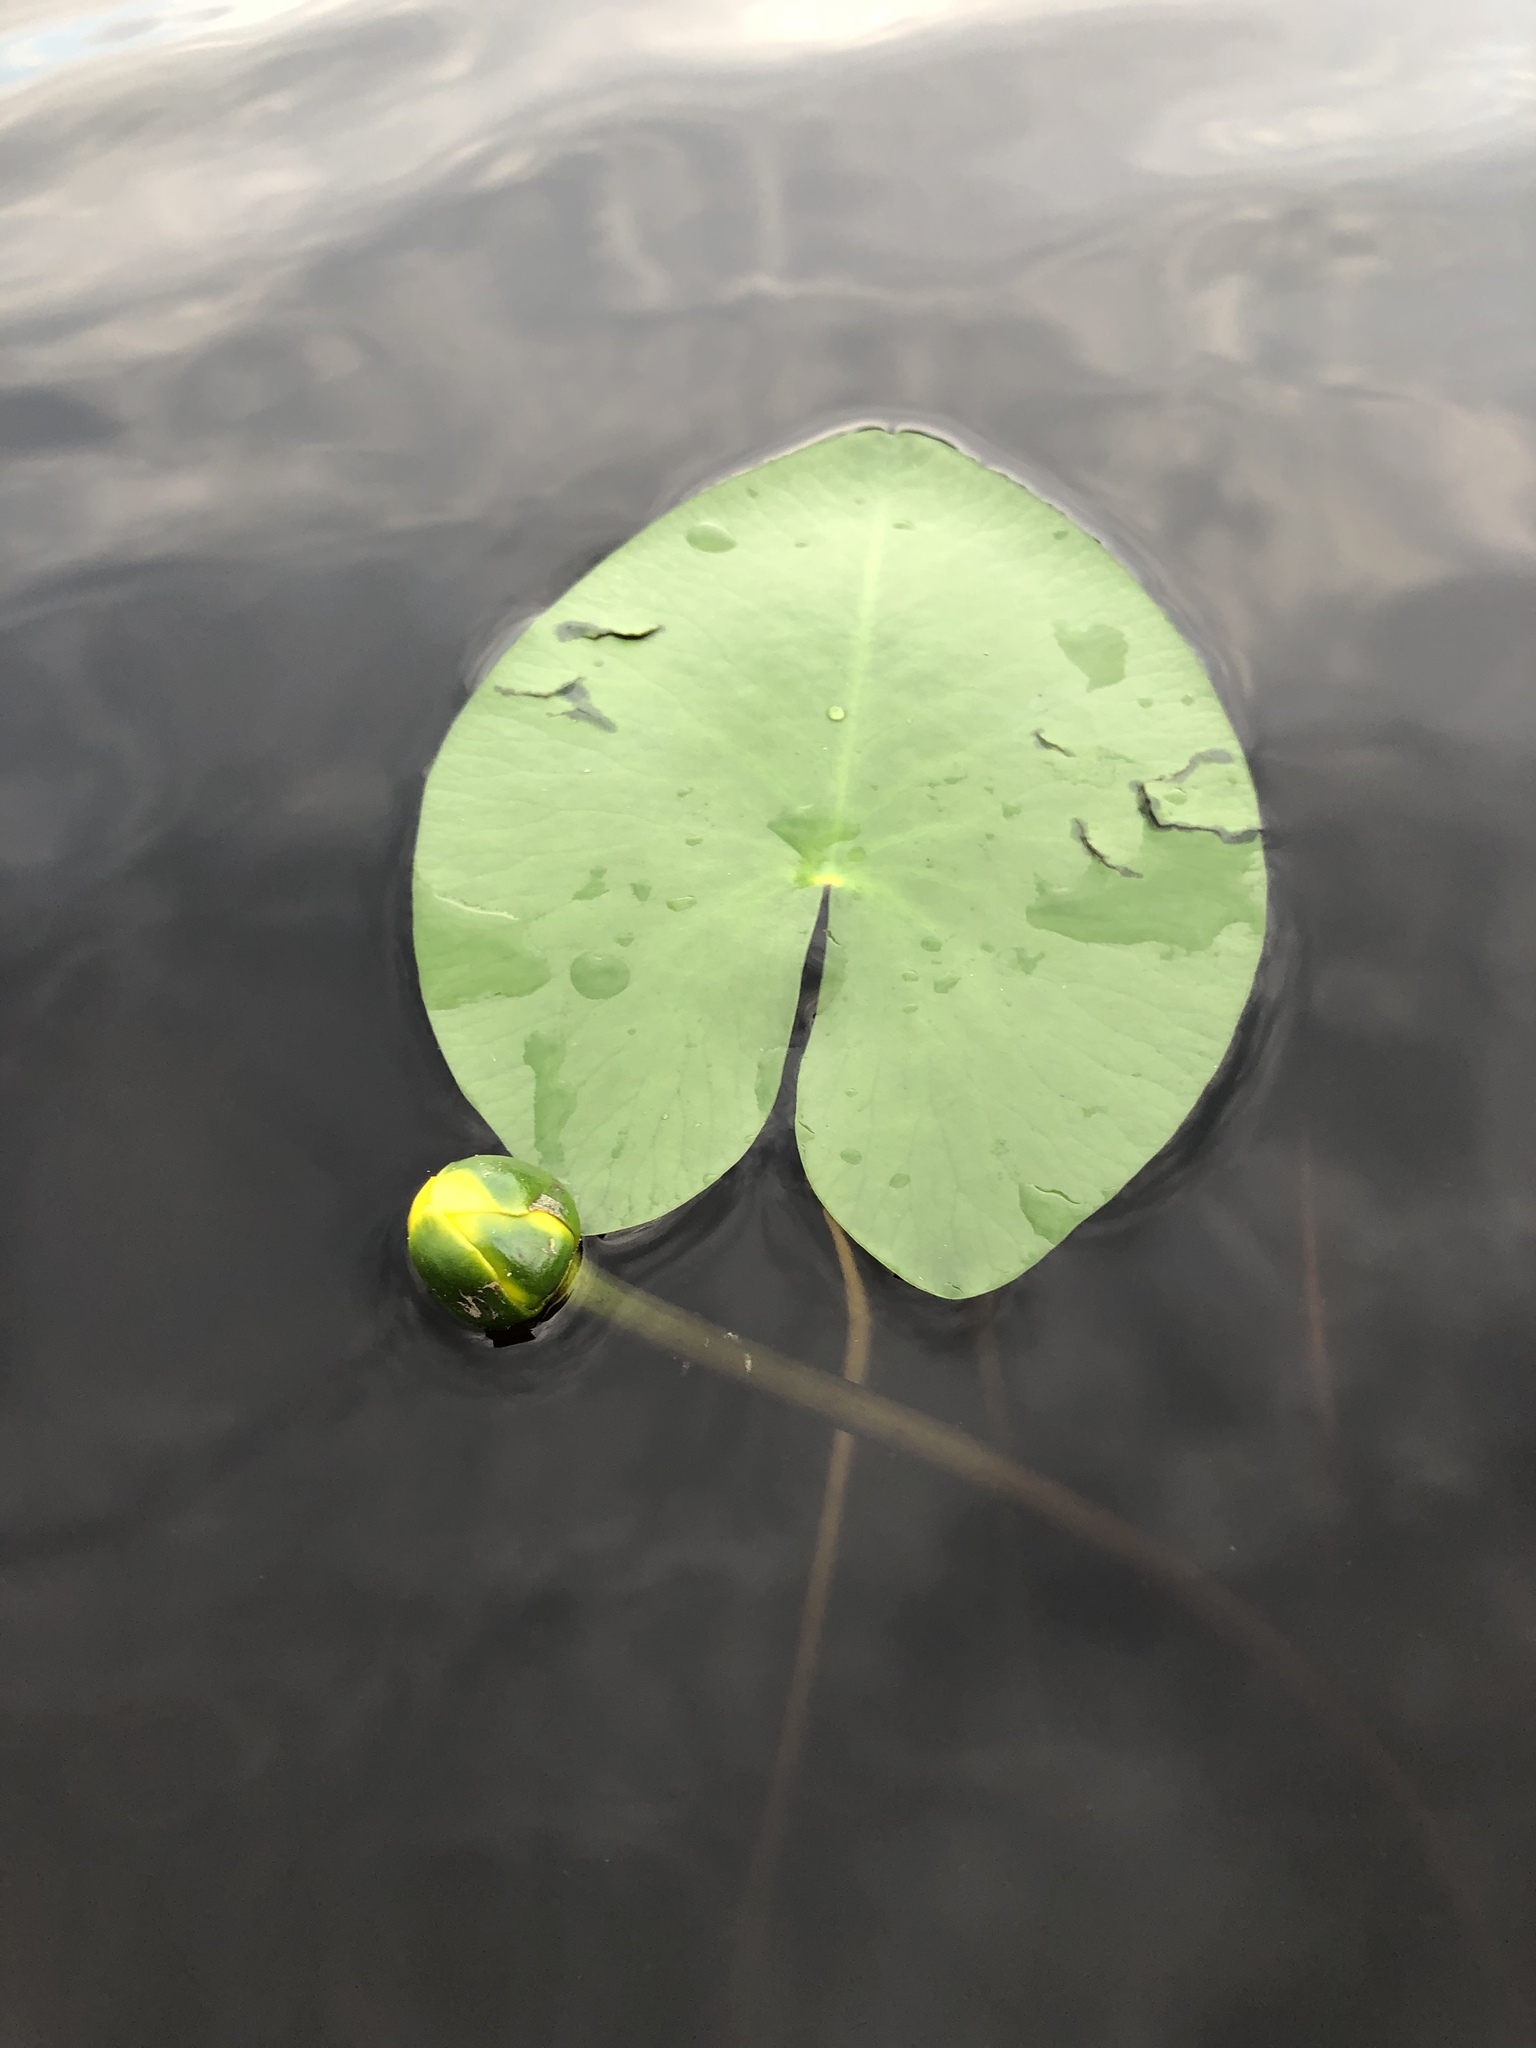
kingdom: Plantae
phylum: Tracheophyta
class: Magnoliopsida
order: Nymphaeales
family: Nymphaeaceae
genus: Nuphar
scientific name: Nuphar pumila
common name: Least water-lily
